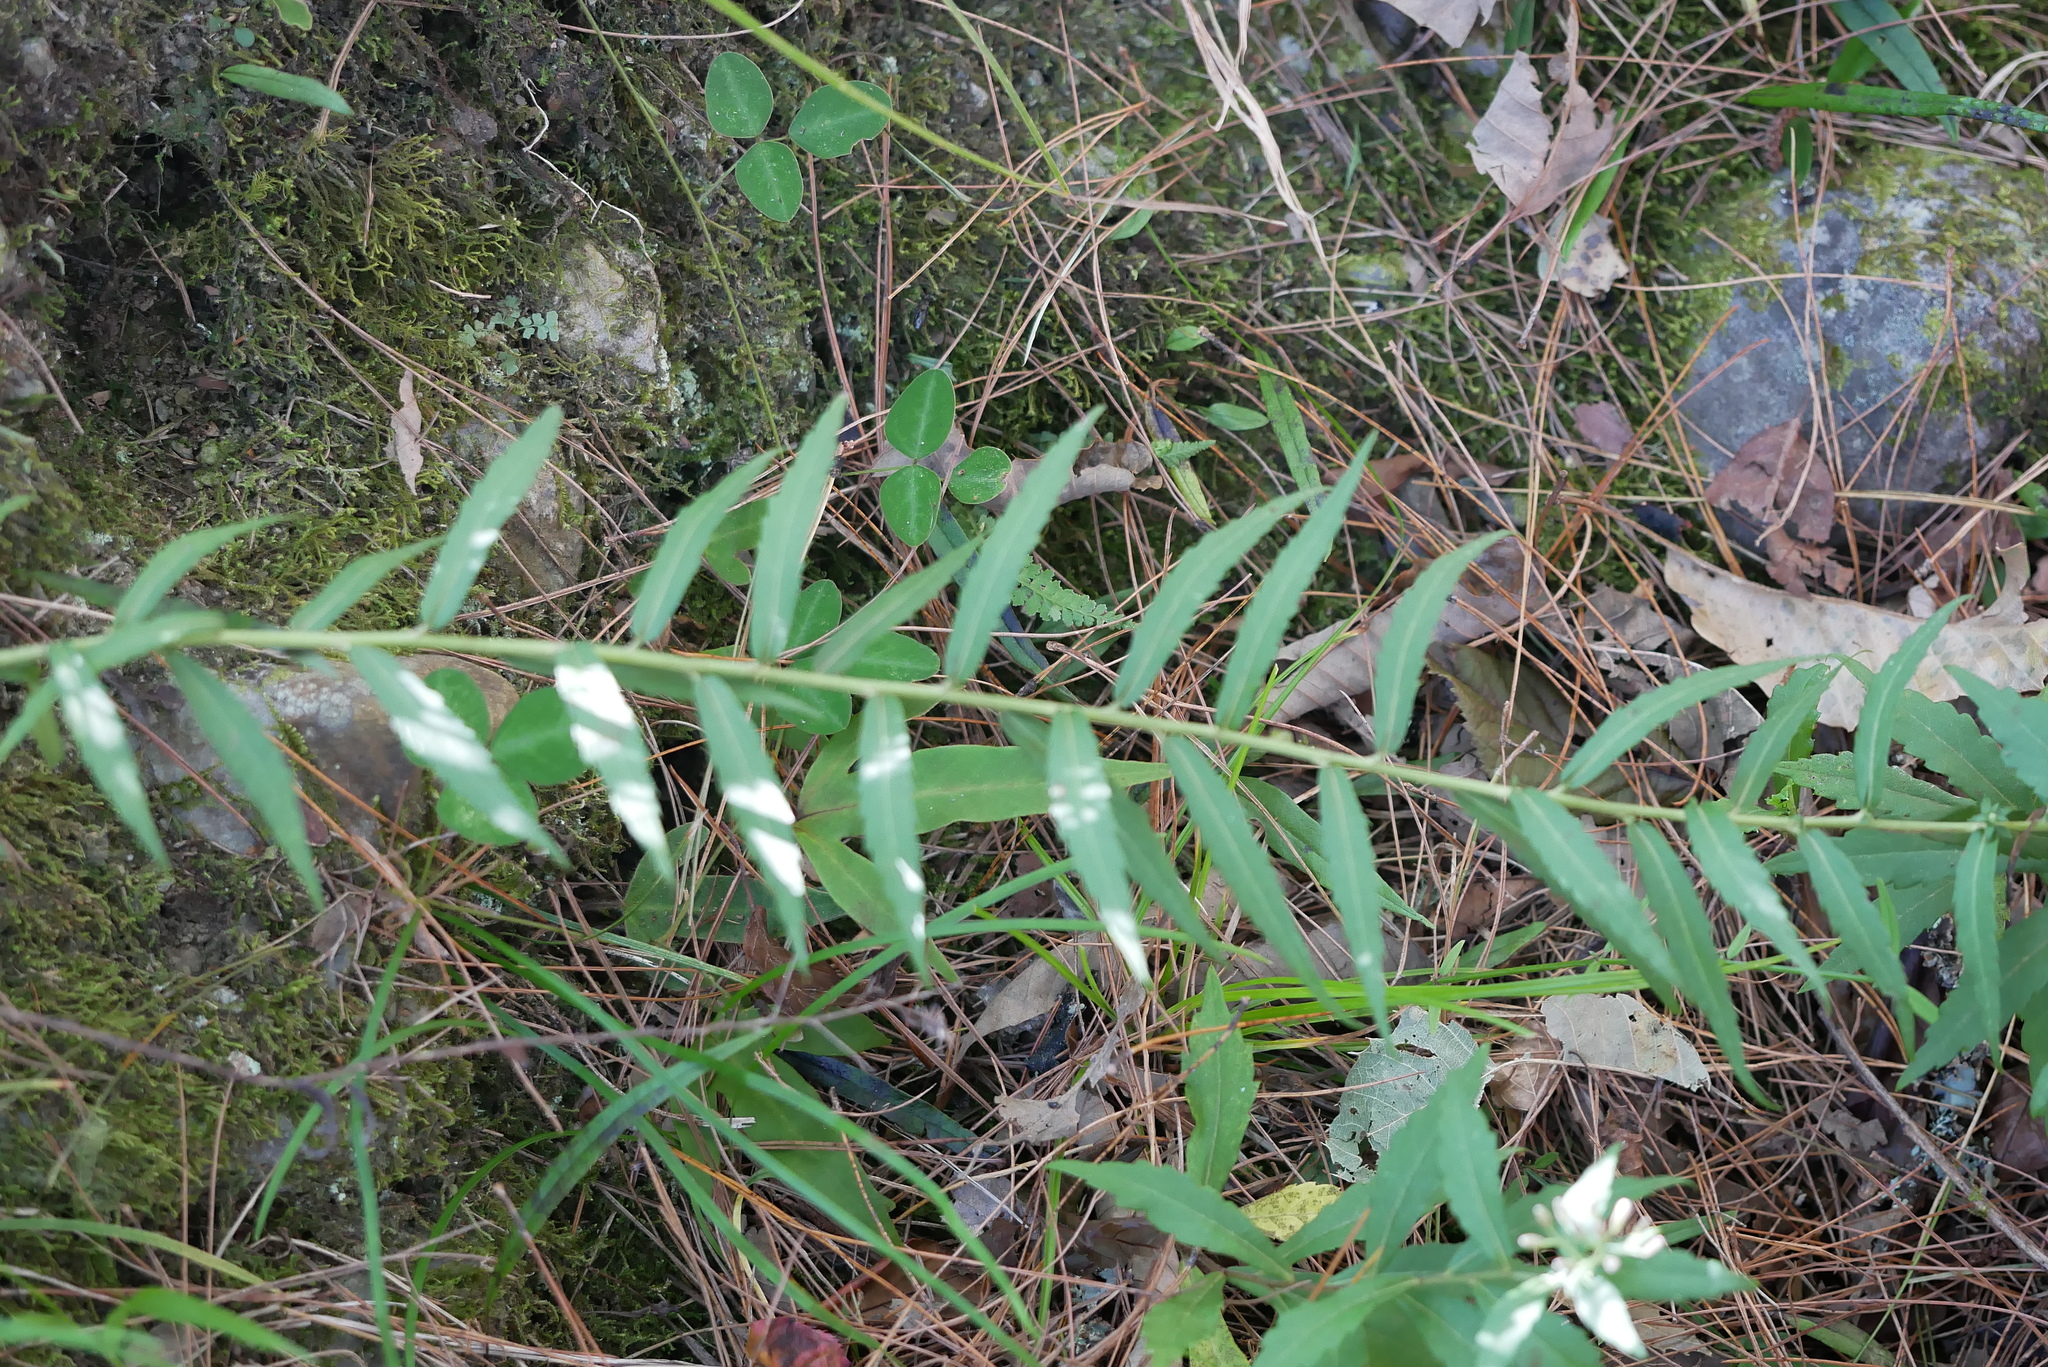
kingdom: Plantae
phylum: Tracheophyta
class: Magnoliopsida
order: Asterales
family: Asteraceae
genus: Aster
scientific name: Aster taiwanensis
